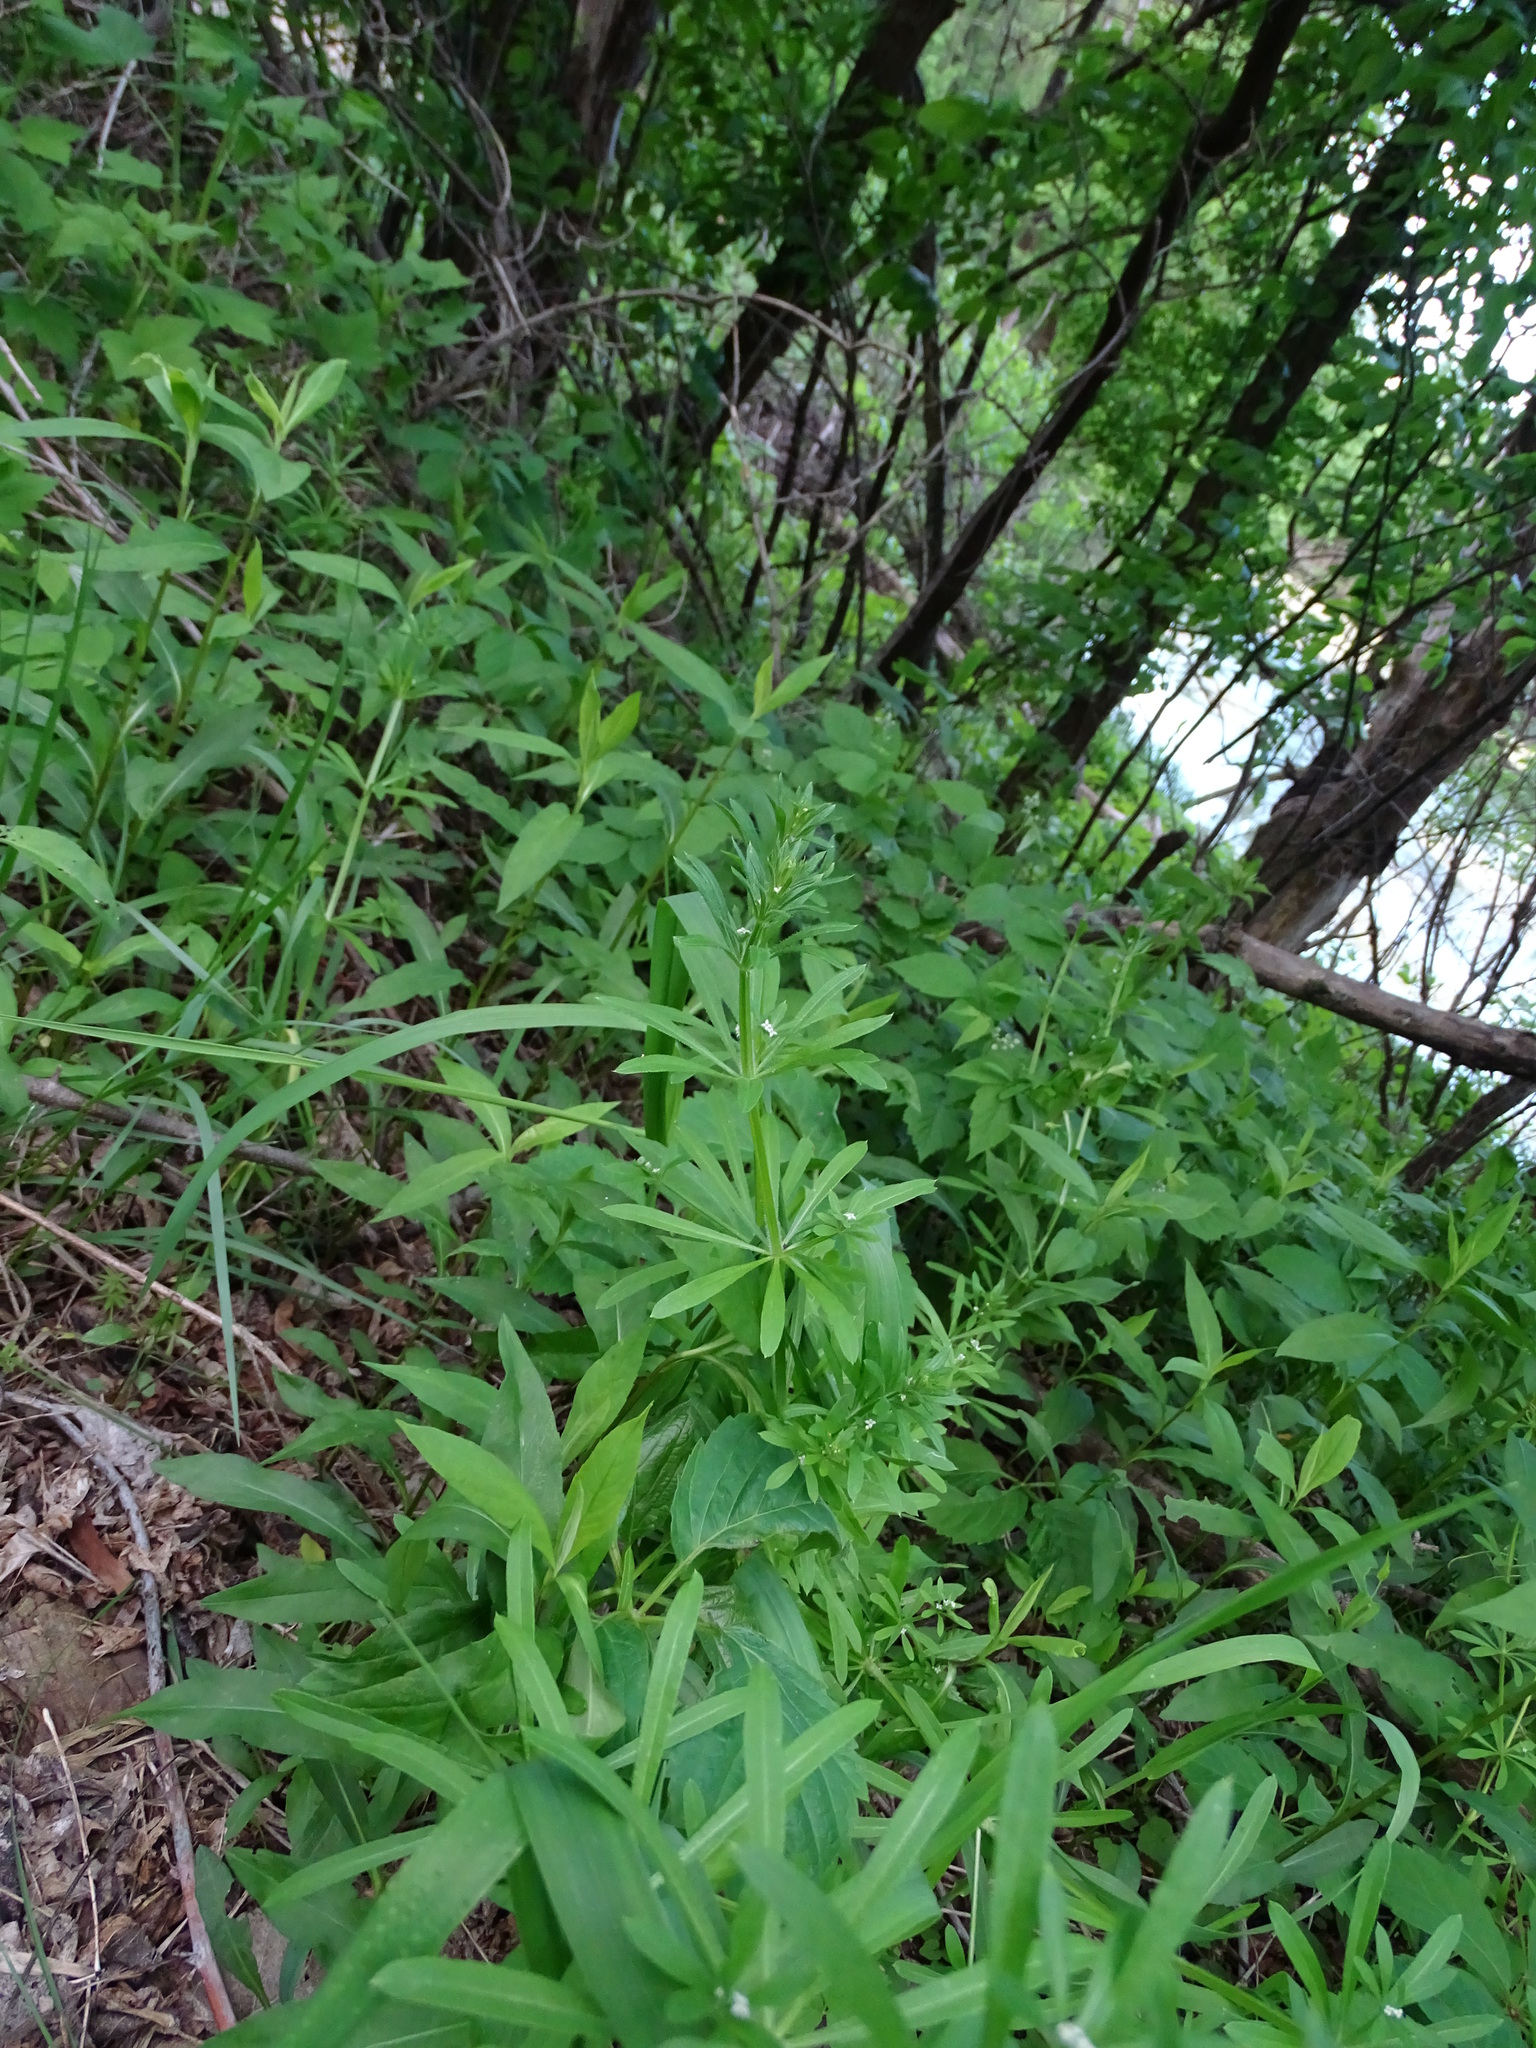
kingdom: Plantae
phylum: Tracheophyta
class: Magnoliopsida
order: Gentianales
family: Rubiaceae
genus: Galium
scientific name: Galium aparine
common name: Cleavers
